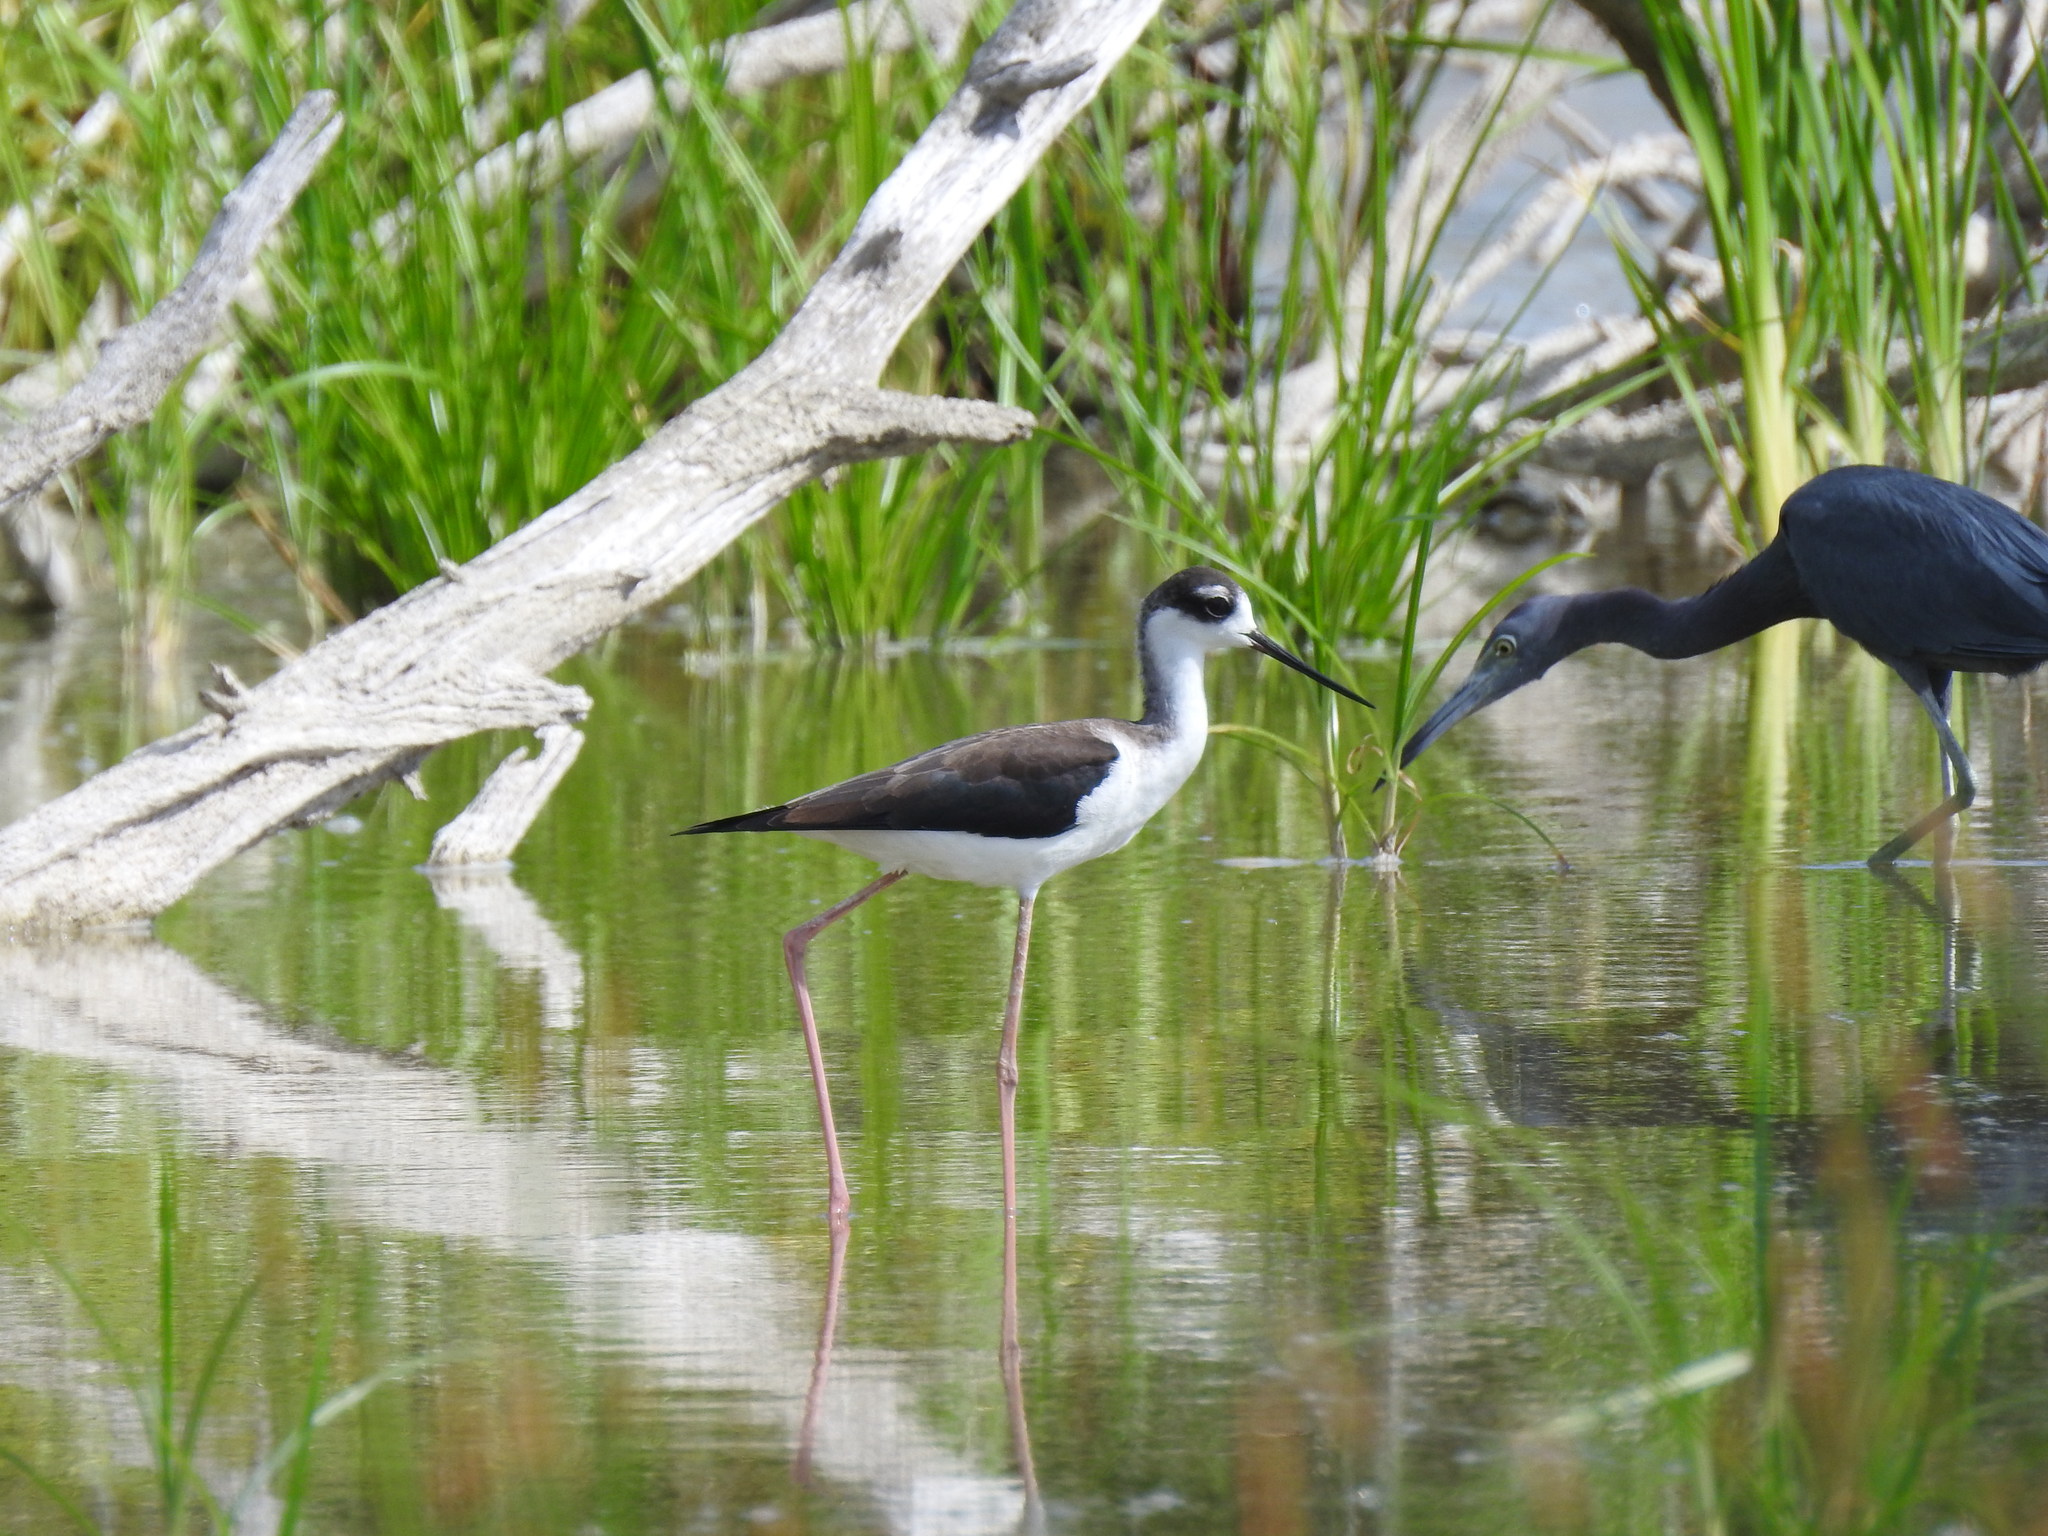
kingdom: Animalia
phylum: Chordata
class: Aves
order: Charadriiformes
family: Recurvirostridae
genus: Himantopus
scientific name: Himantopus mexicanus
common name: Black-necked stilt
